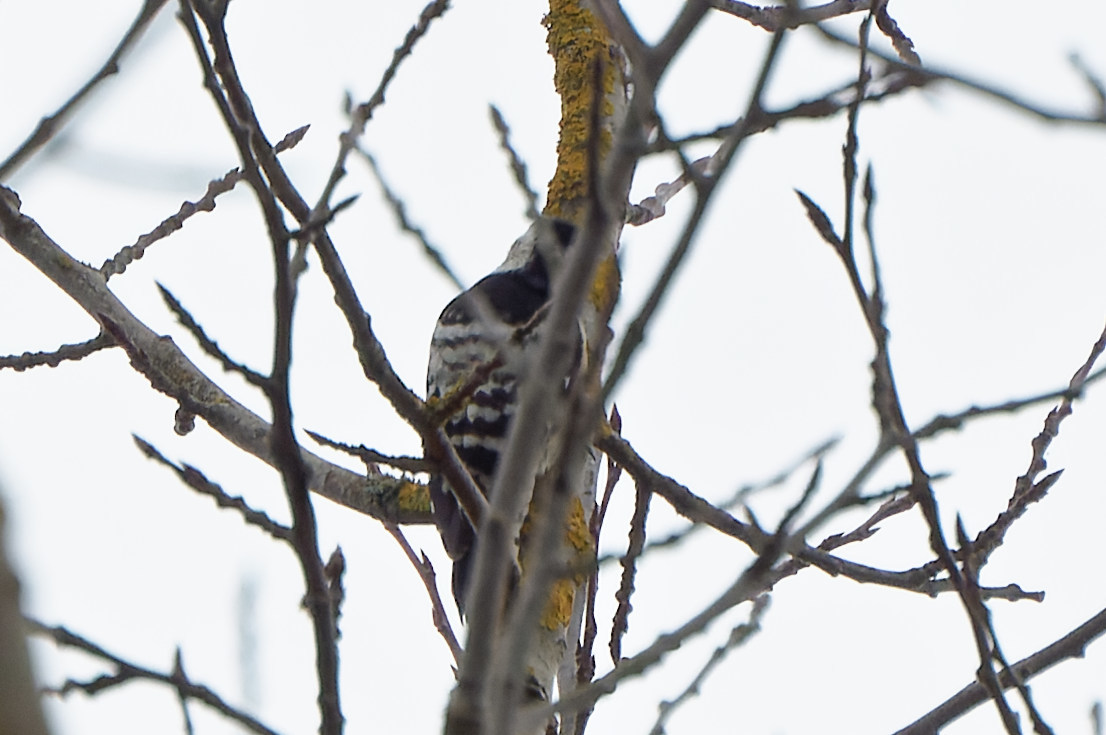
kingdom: Animalia
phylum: Chordata
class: Aves
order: Piciformes
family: Picidae
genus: Dryobates
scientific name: Dryobates minor
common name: Lesser spotted woodpecker
